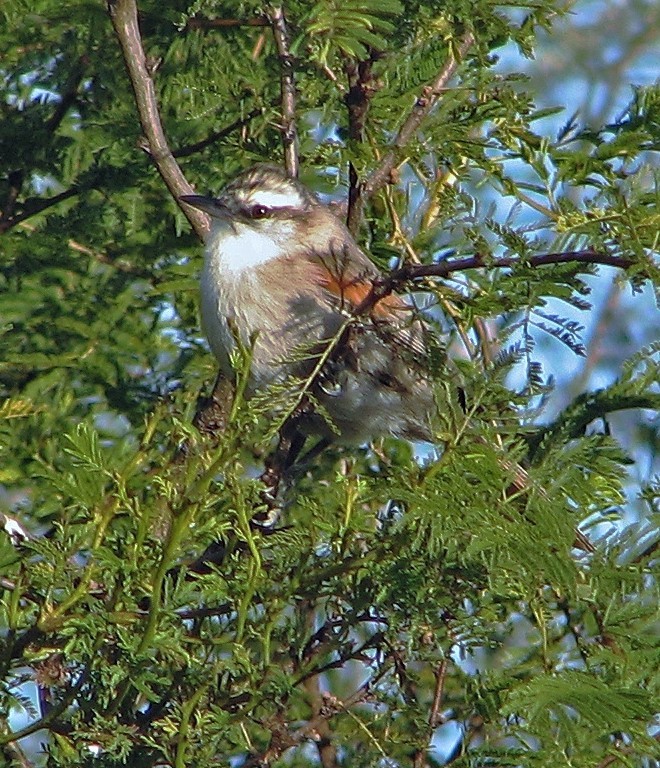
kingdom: Animalia
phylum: Chordata
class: Aves
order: Passeriformes
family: Furnariidae
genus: Cranioleuca
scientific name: Cranioleuca pyrrhophia
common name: Stripe-crowned spinetail
